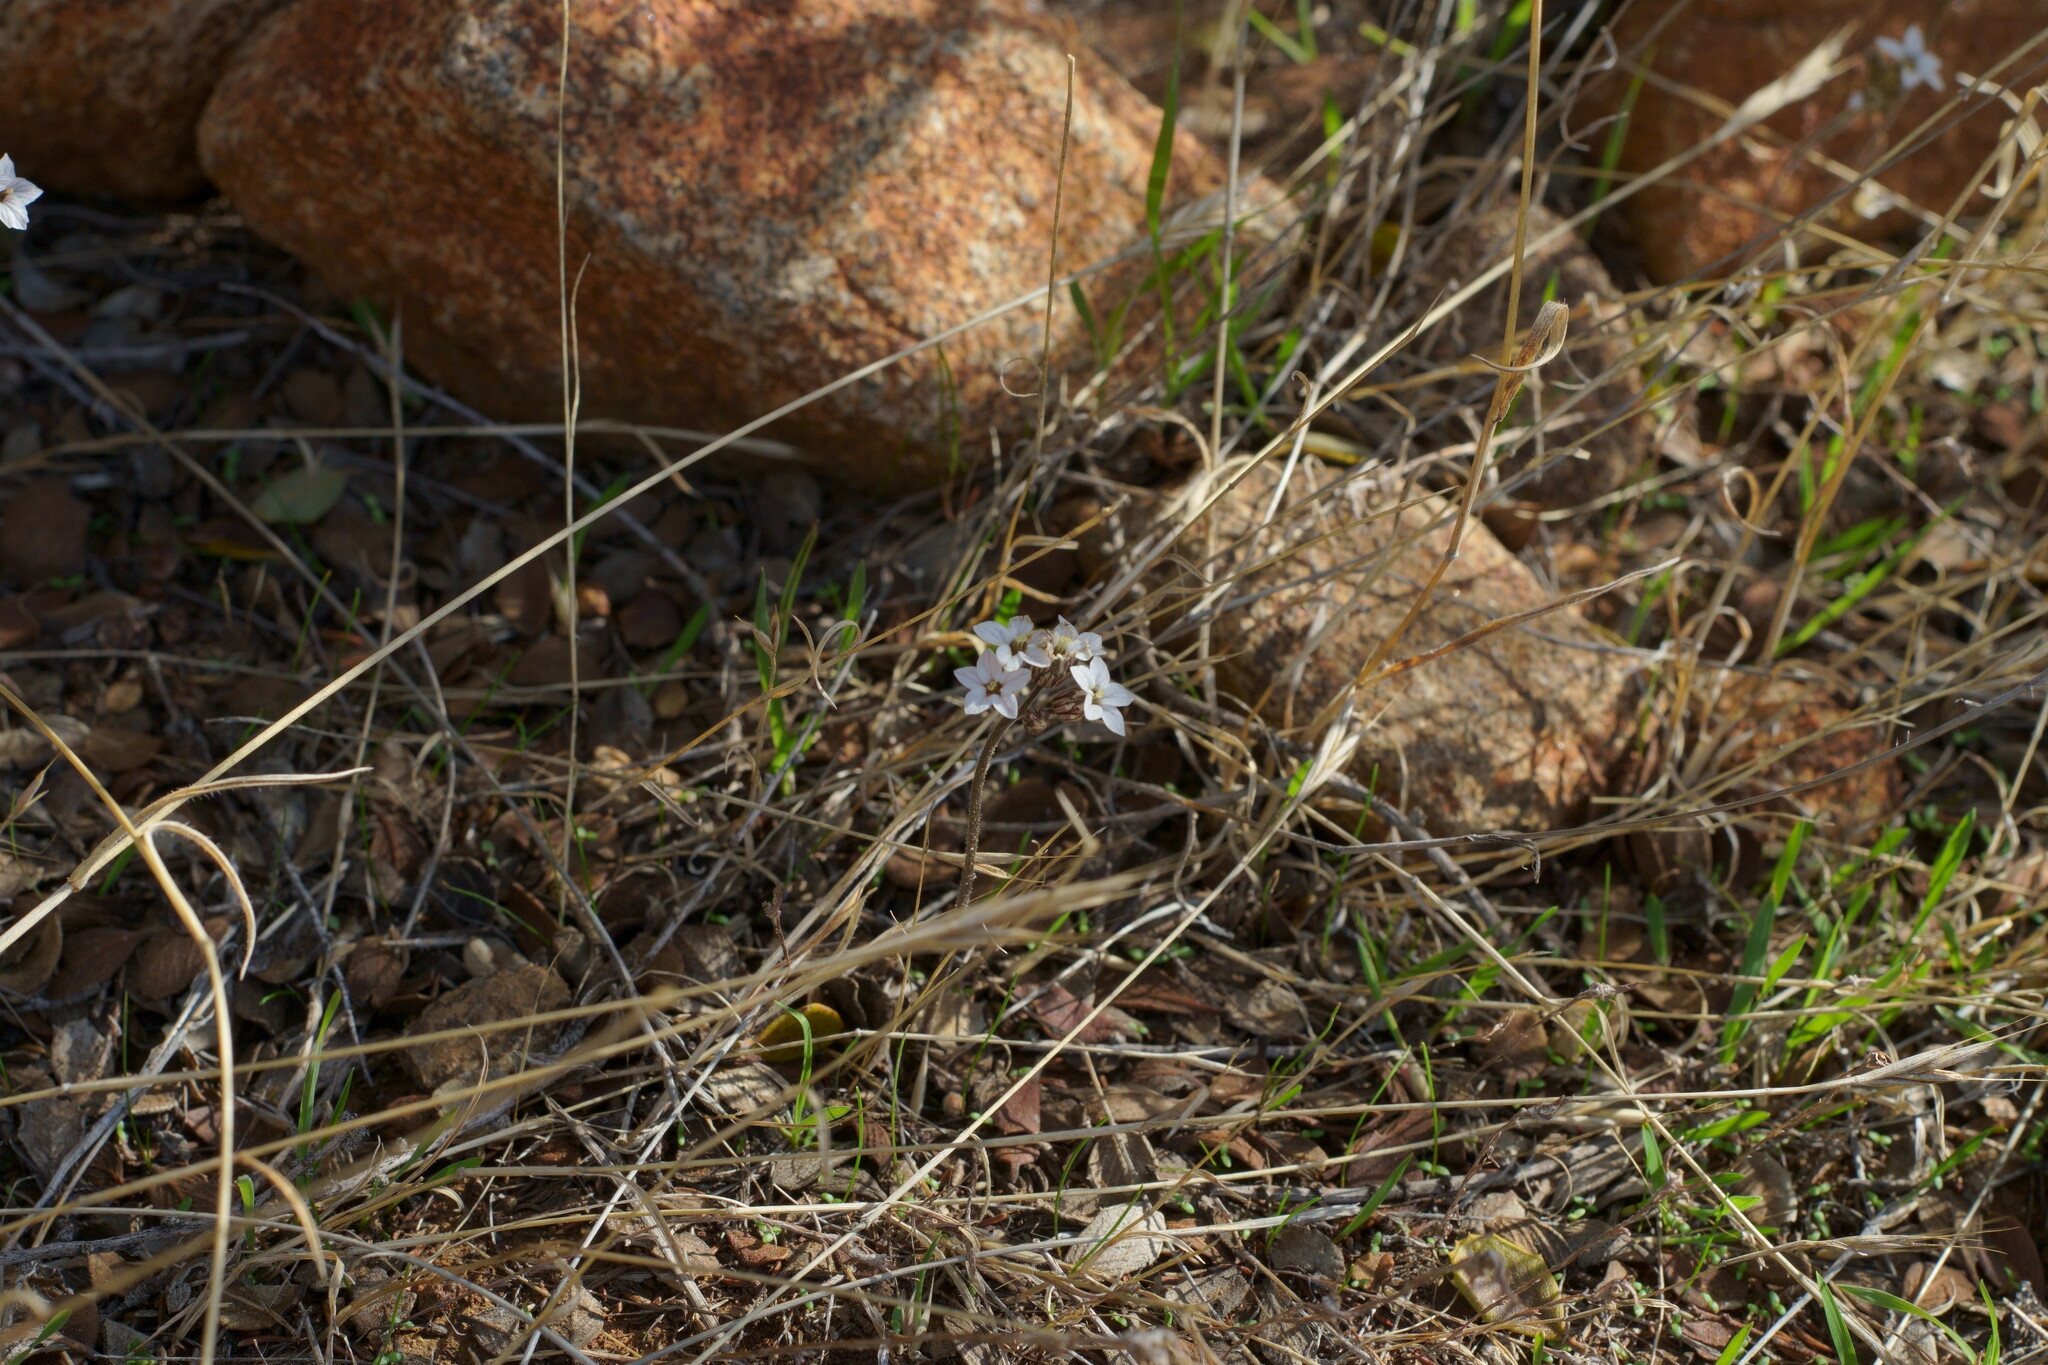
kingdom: Plantae
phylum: Tracheophyta
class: Magnoliopsida
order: Saxifragales
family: Saxifragaceae
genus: Jepsonia
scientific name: Jepsonia parryi
